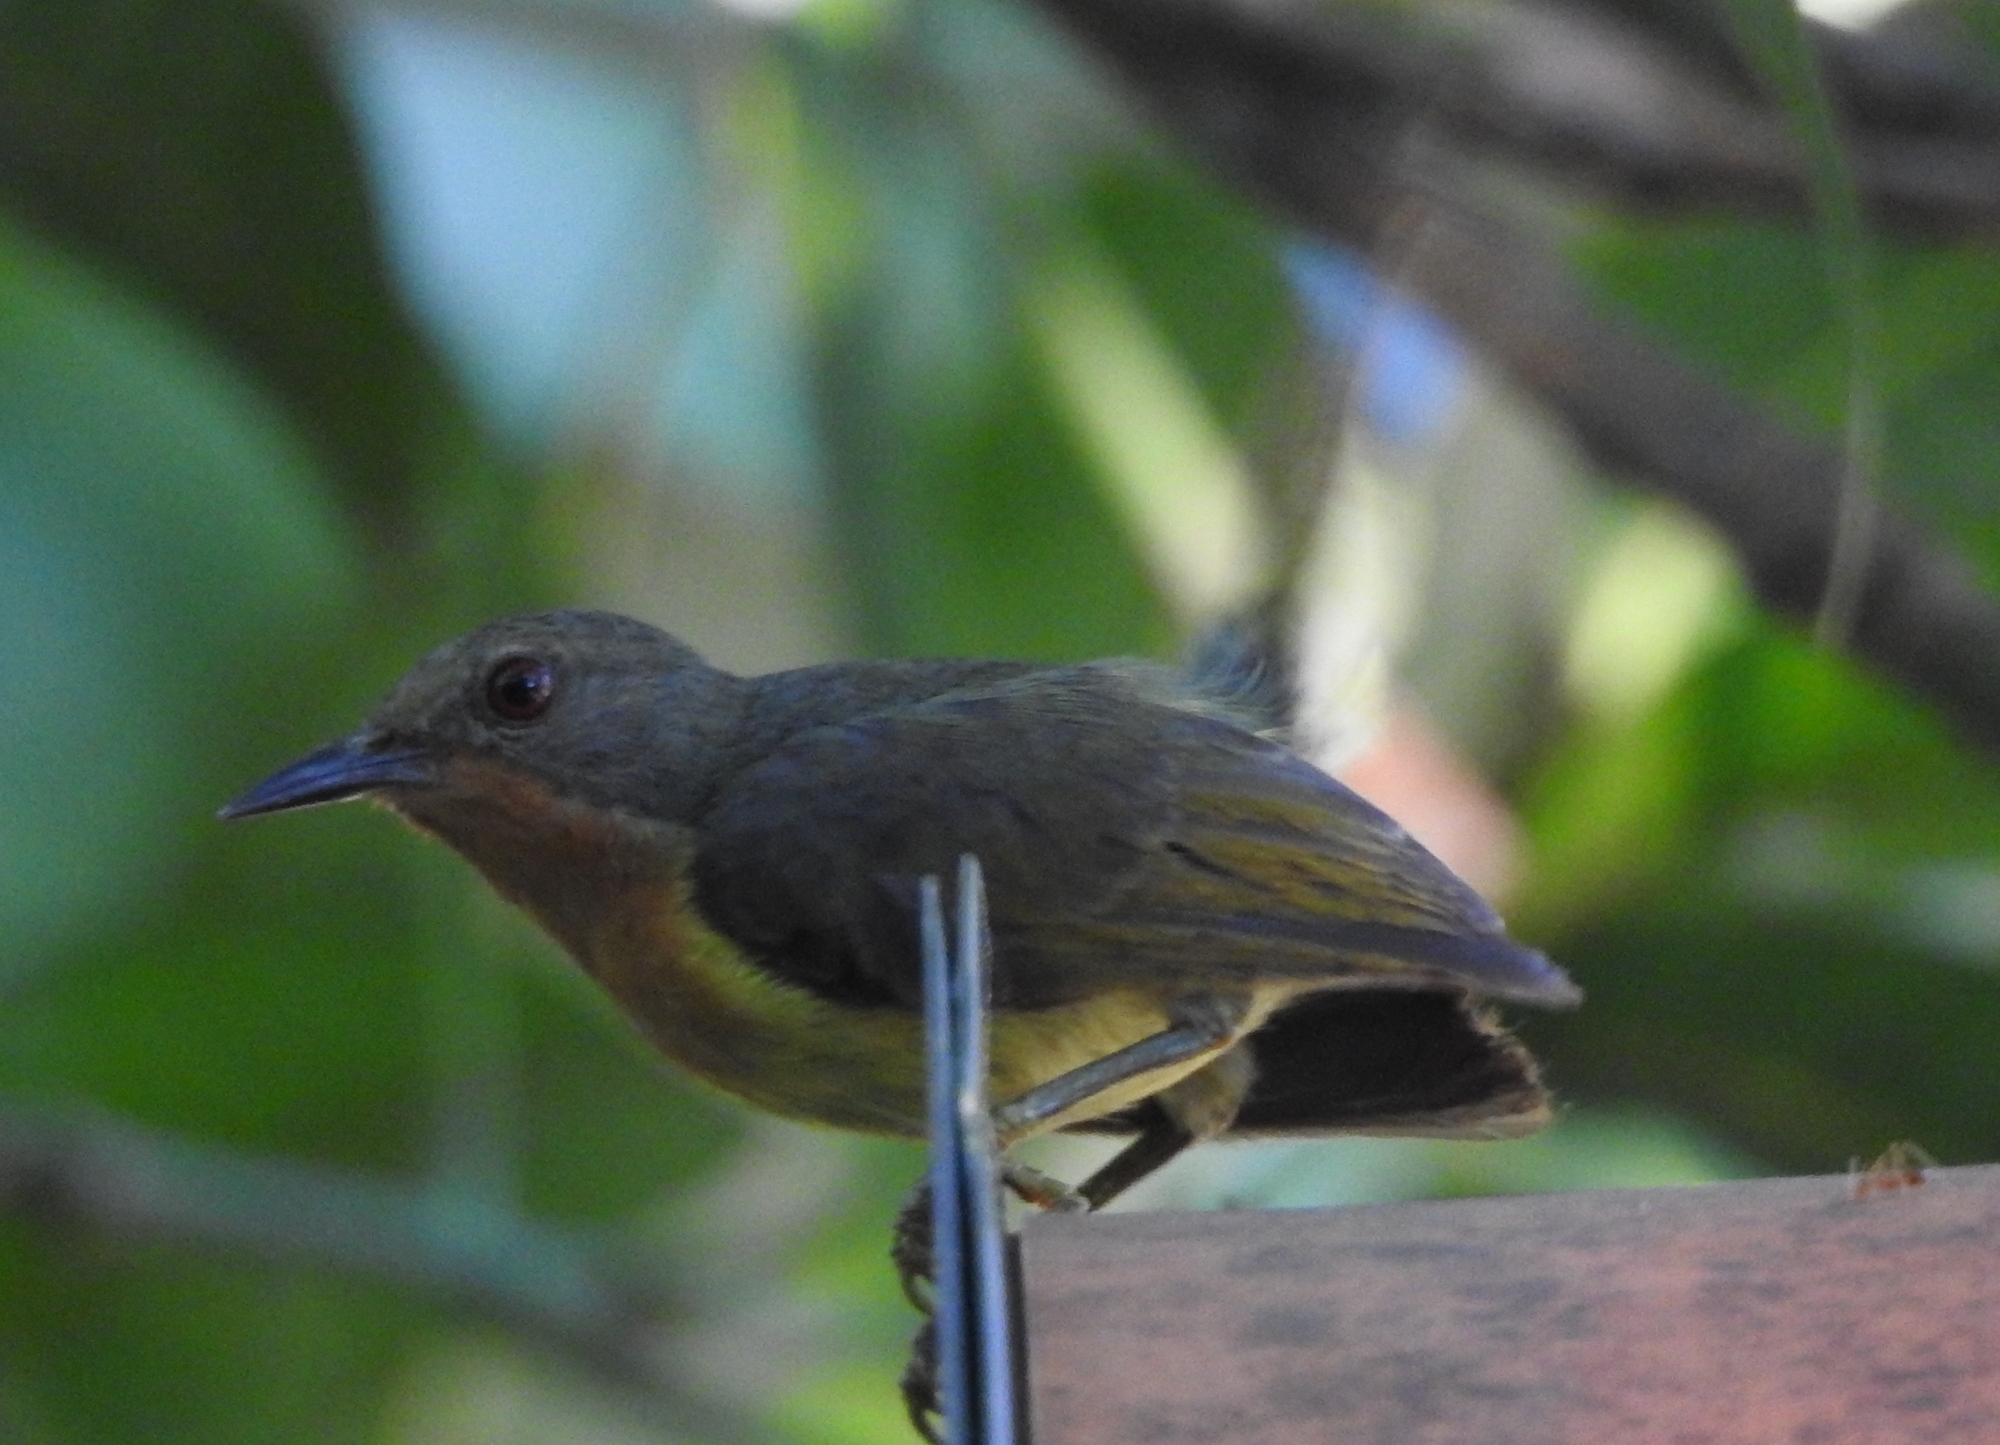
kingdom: Animalia
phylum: Chordata
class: Aves
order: Passeriformes
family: Nectariniidae
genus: Chalcoparia
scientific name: Chalcoparia singalensis
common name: Ruby-cheeked sunbird
